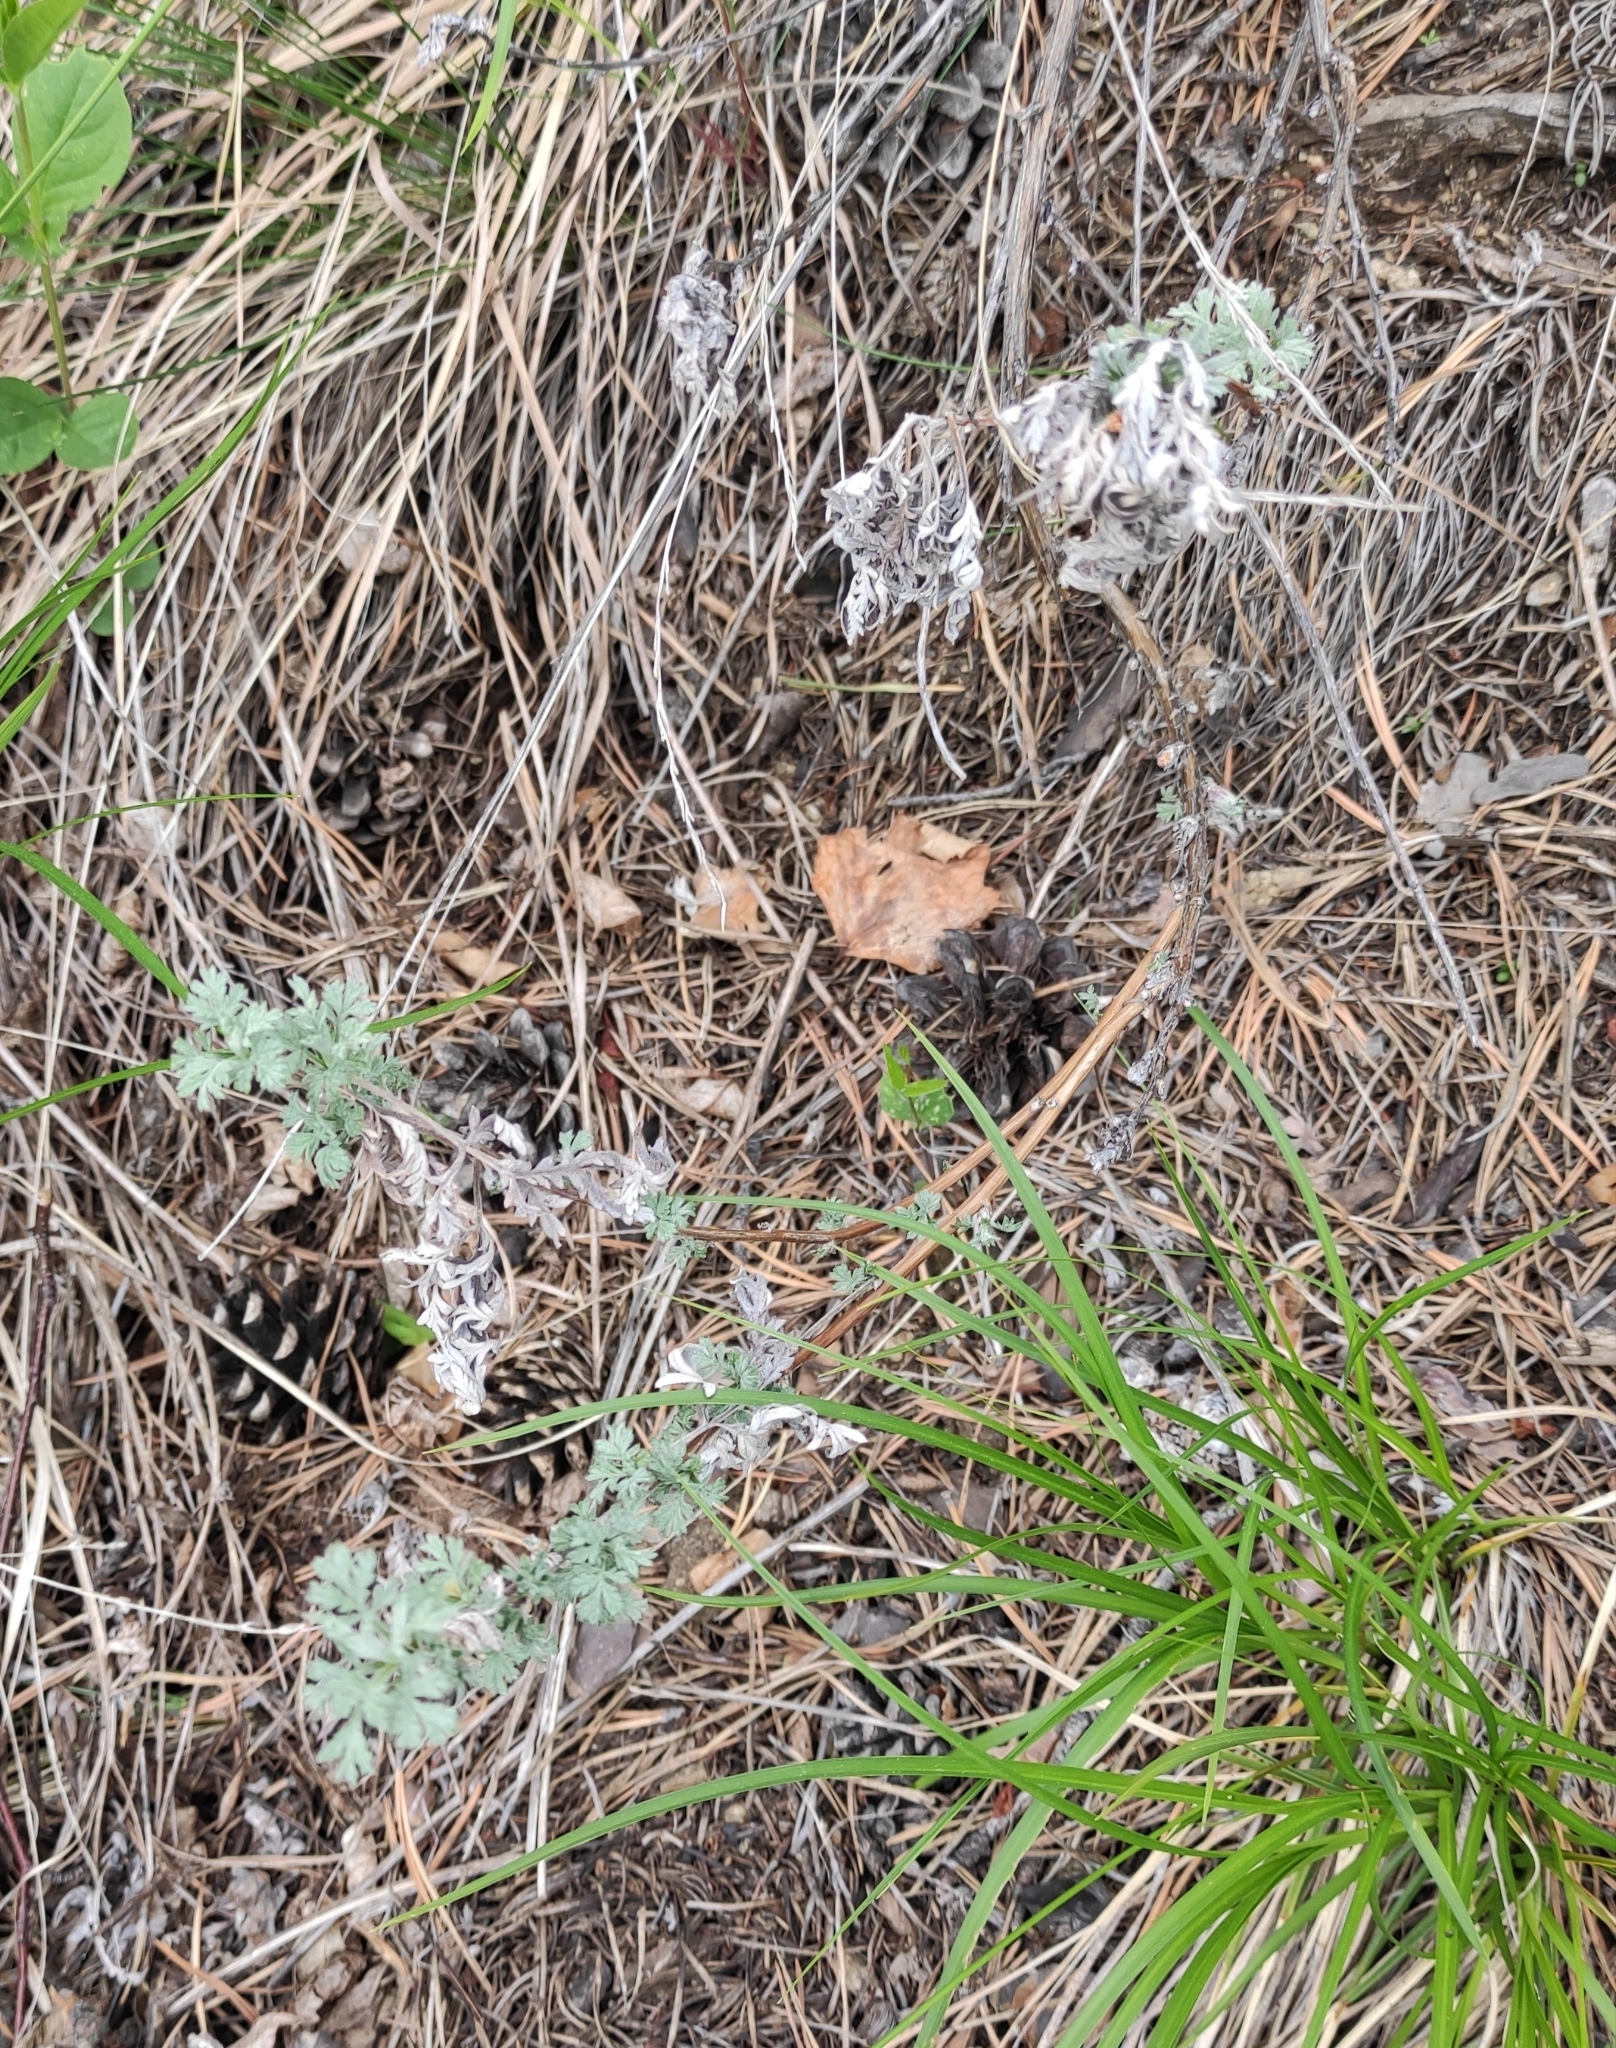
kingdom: Plantae
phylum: Tracheophyta
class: Magnoliopsida
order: Asterales
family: Asteraceae
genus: Artemisia
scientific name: Artemisia frigida
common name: Prairie sagewort
